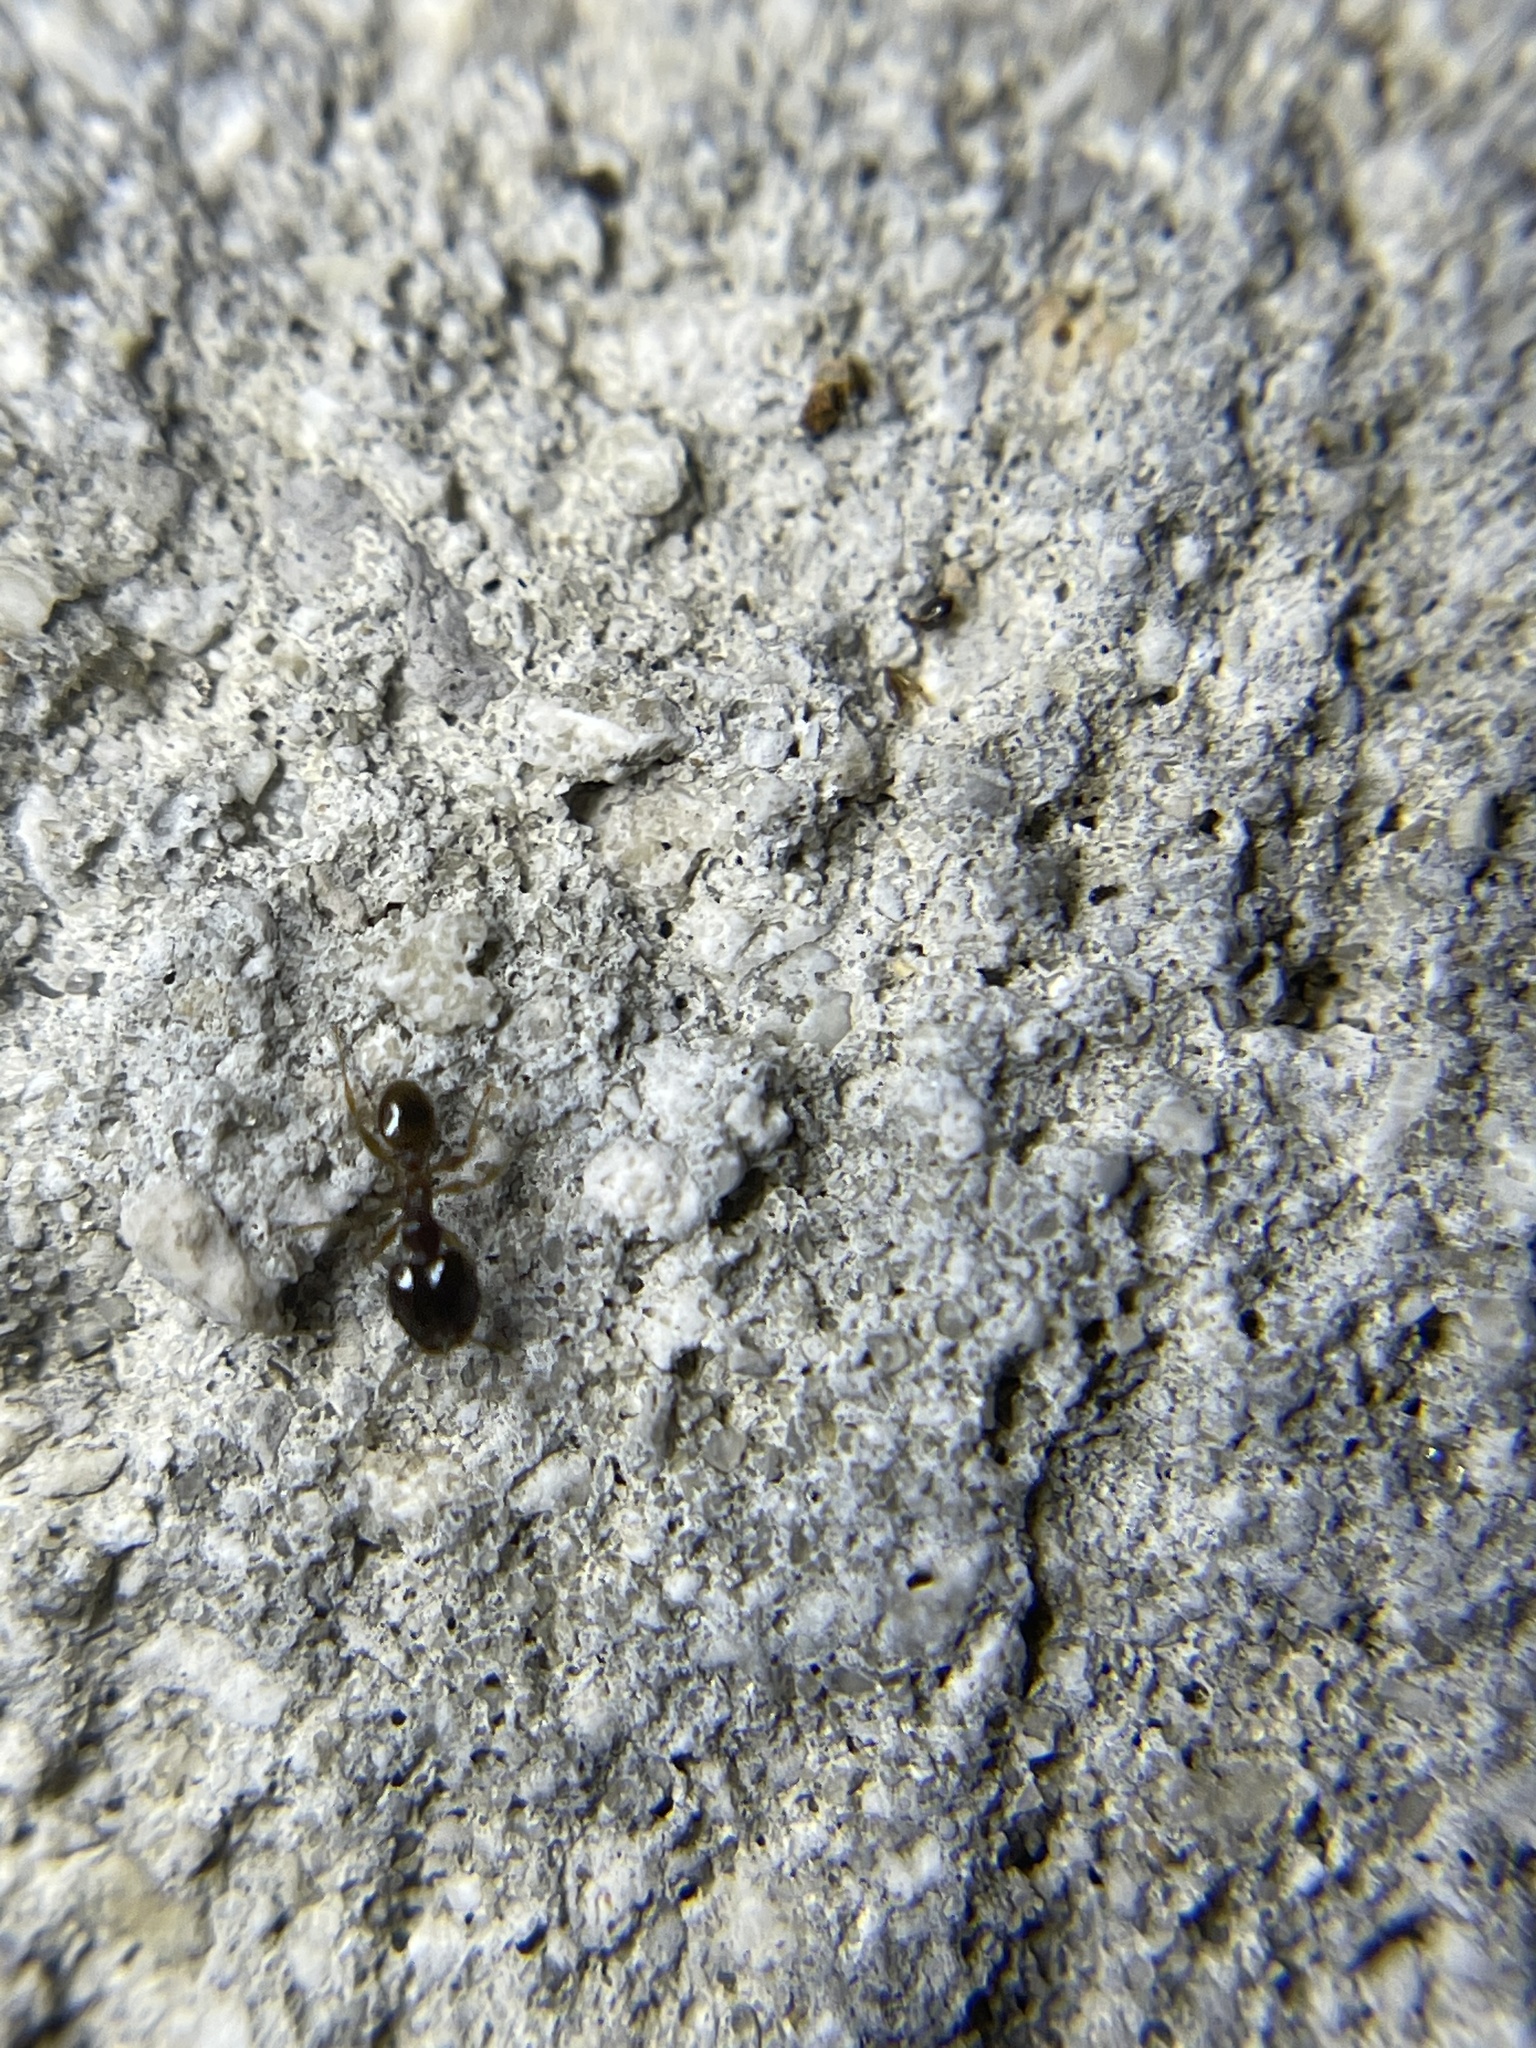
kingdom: Animalia
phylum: Arthropoda
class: Insecta
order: Hymenoptera
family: Formicidae
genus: Pheidole
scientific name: Pheidole megacephala
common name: Bigheaded ant
